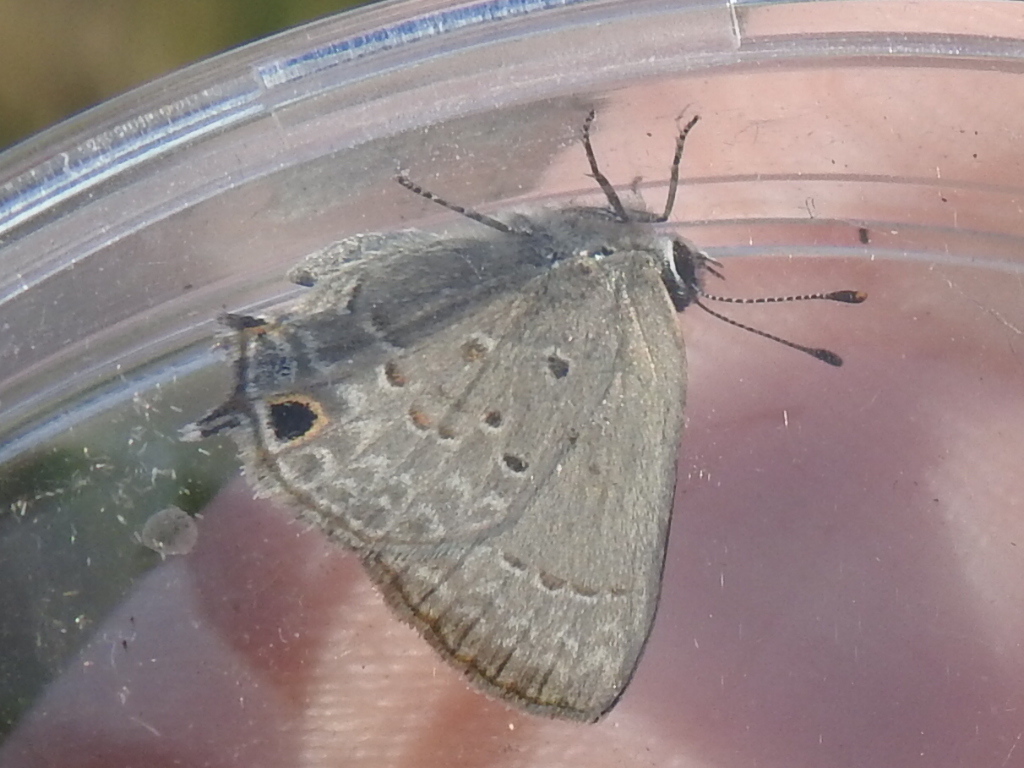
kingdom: Animalia
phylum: Arthropoda
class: Insecta
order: Lepidoptera
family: Lycaenidae
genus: Callicista
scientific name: Callicista columella
